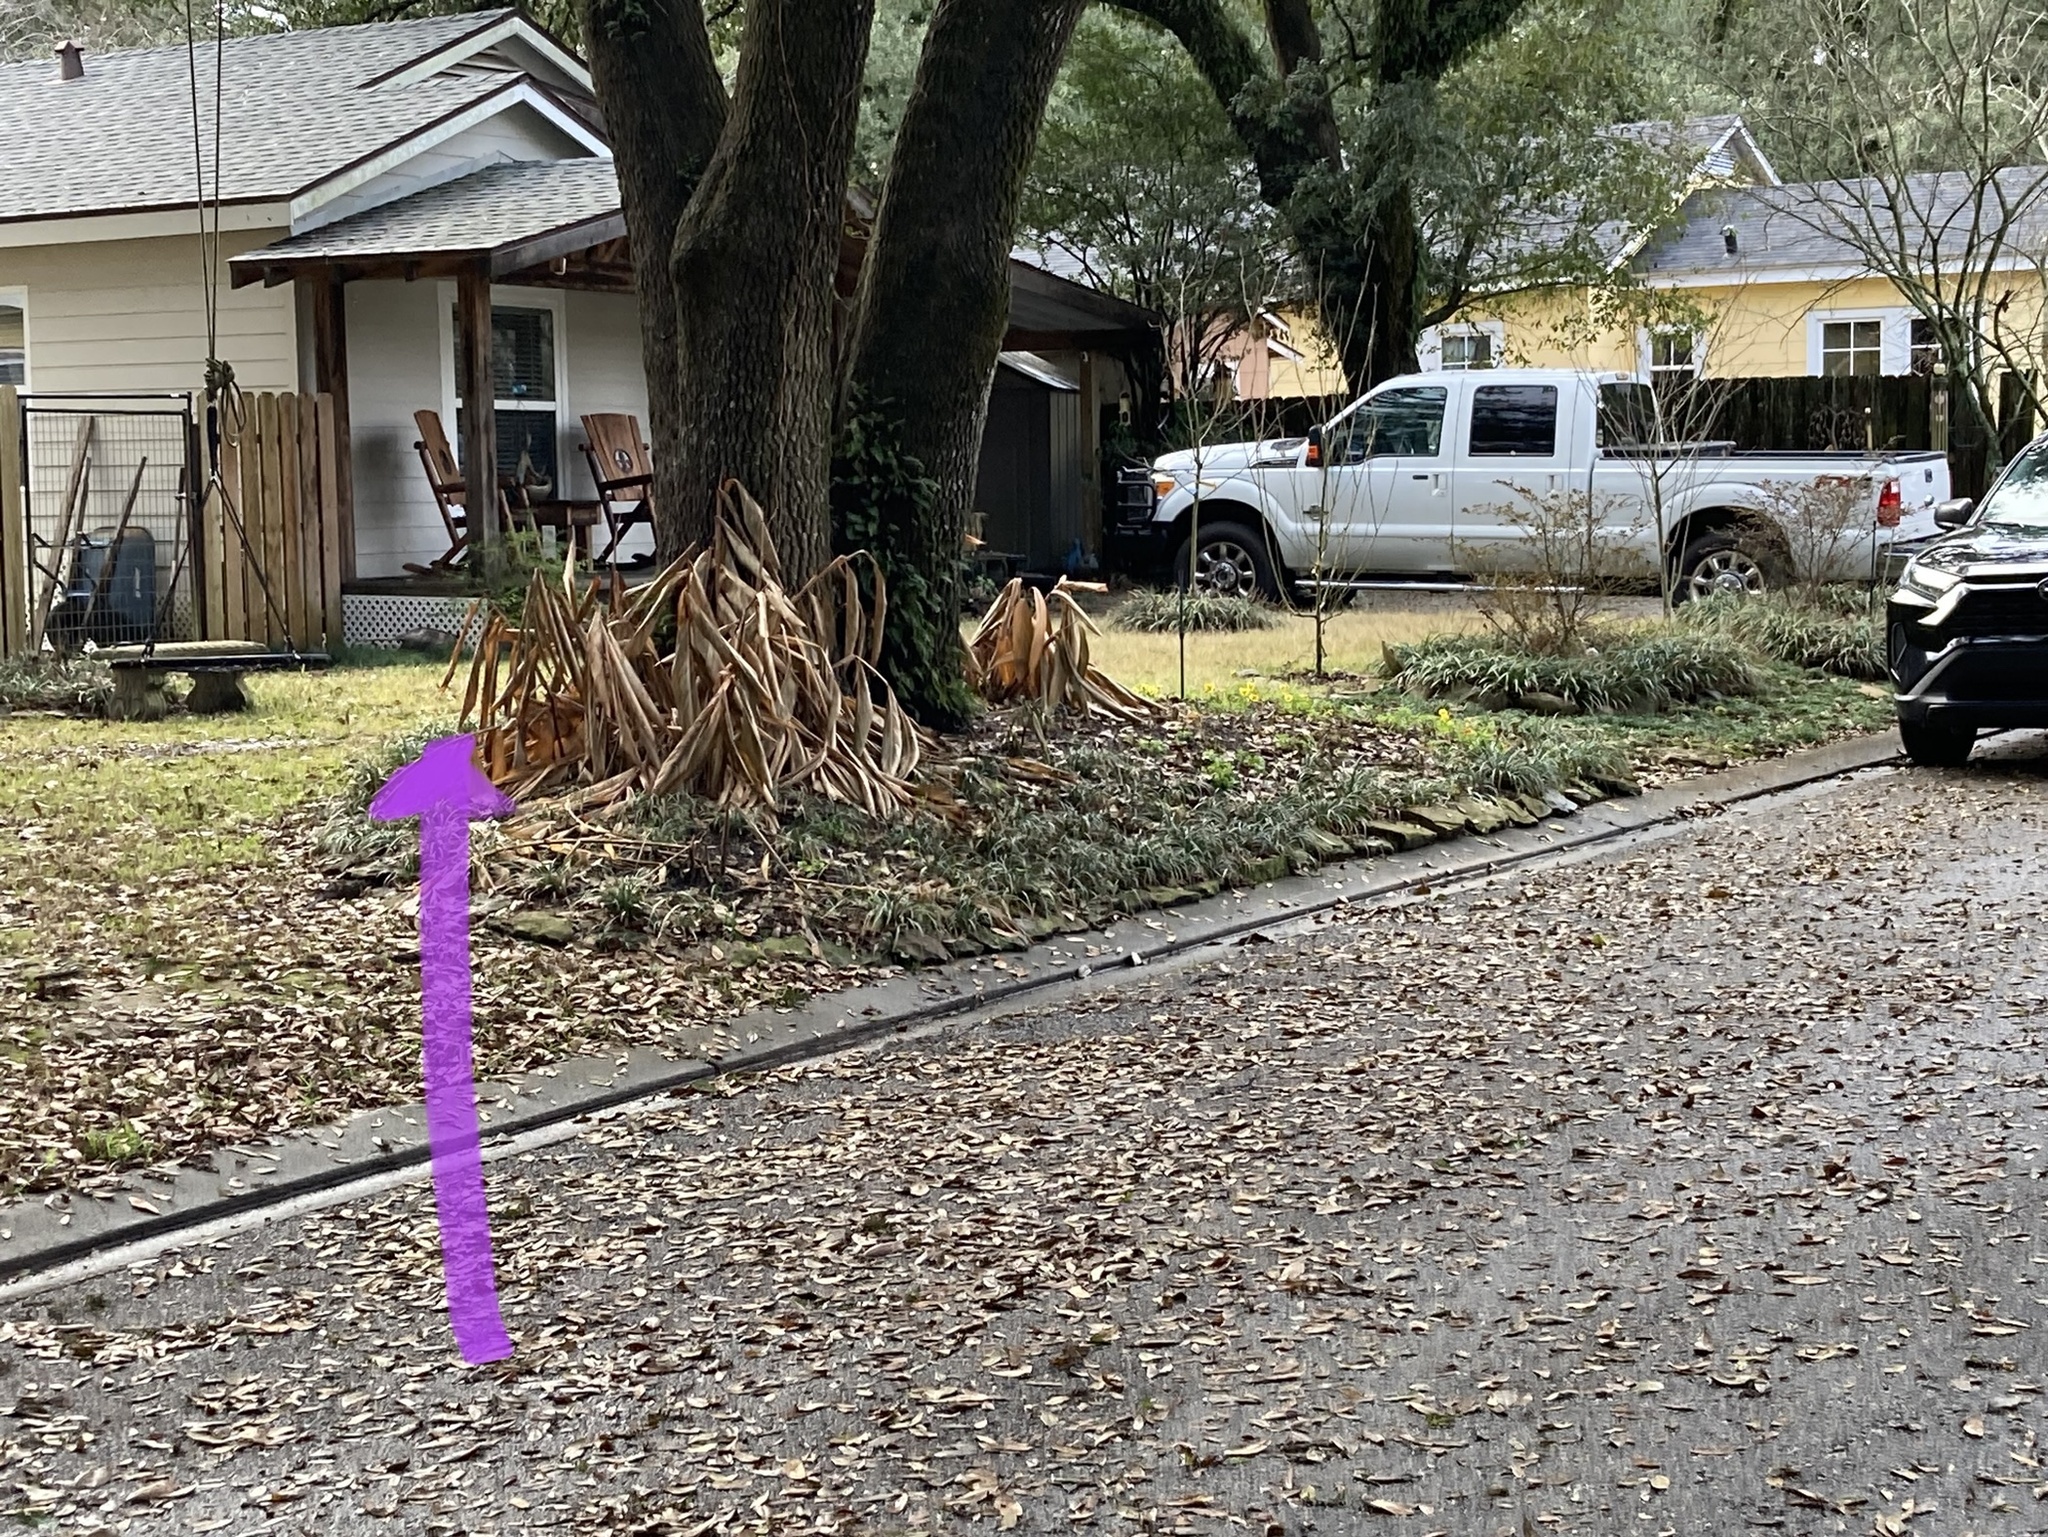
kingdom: Animalia
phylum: Chordata
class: Mammalia
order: Didelphimorphia
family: Didelphidae
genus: Didelphis
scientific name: Didelphis virginiana
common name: Virginia opossum
